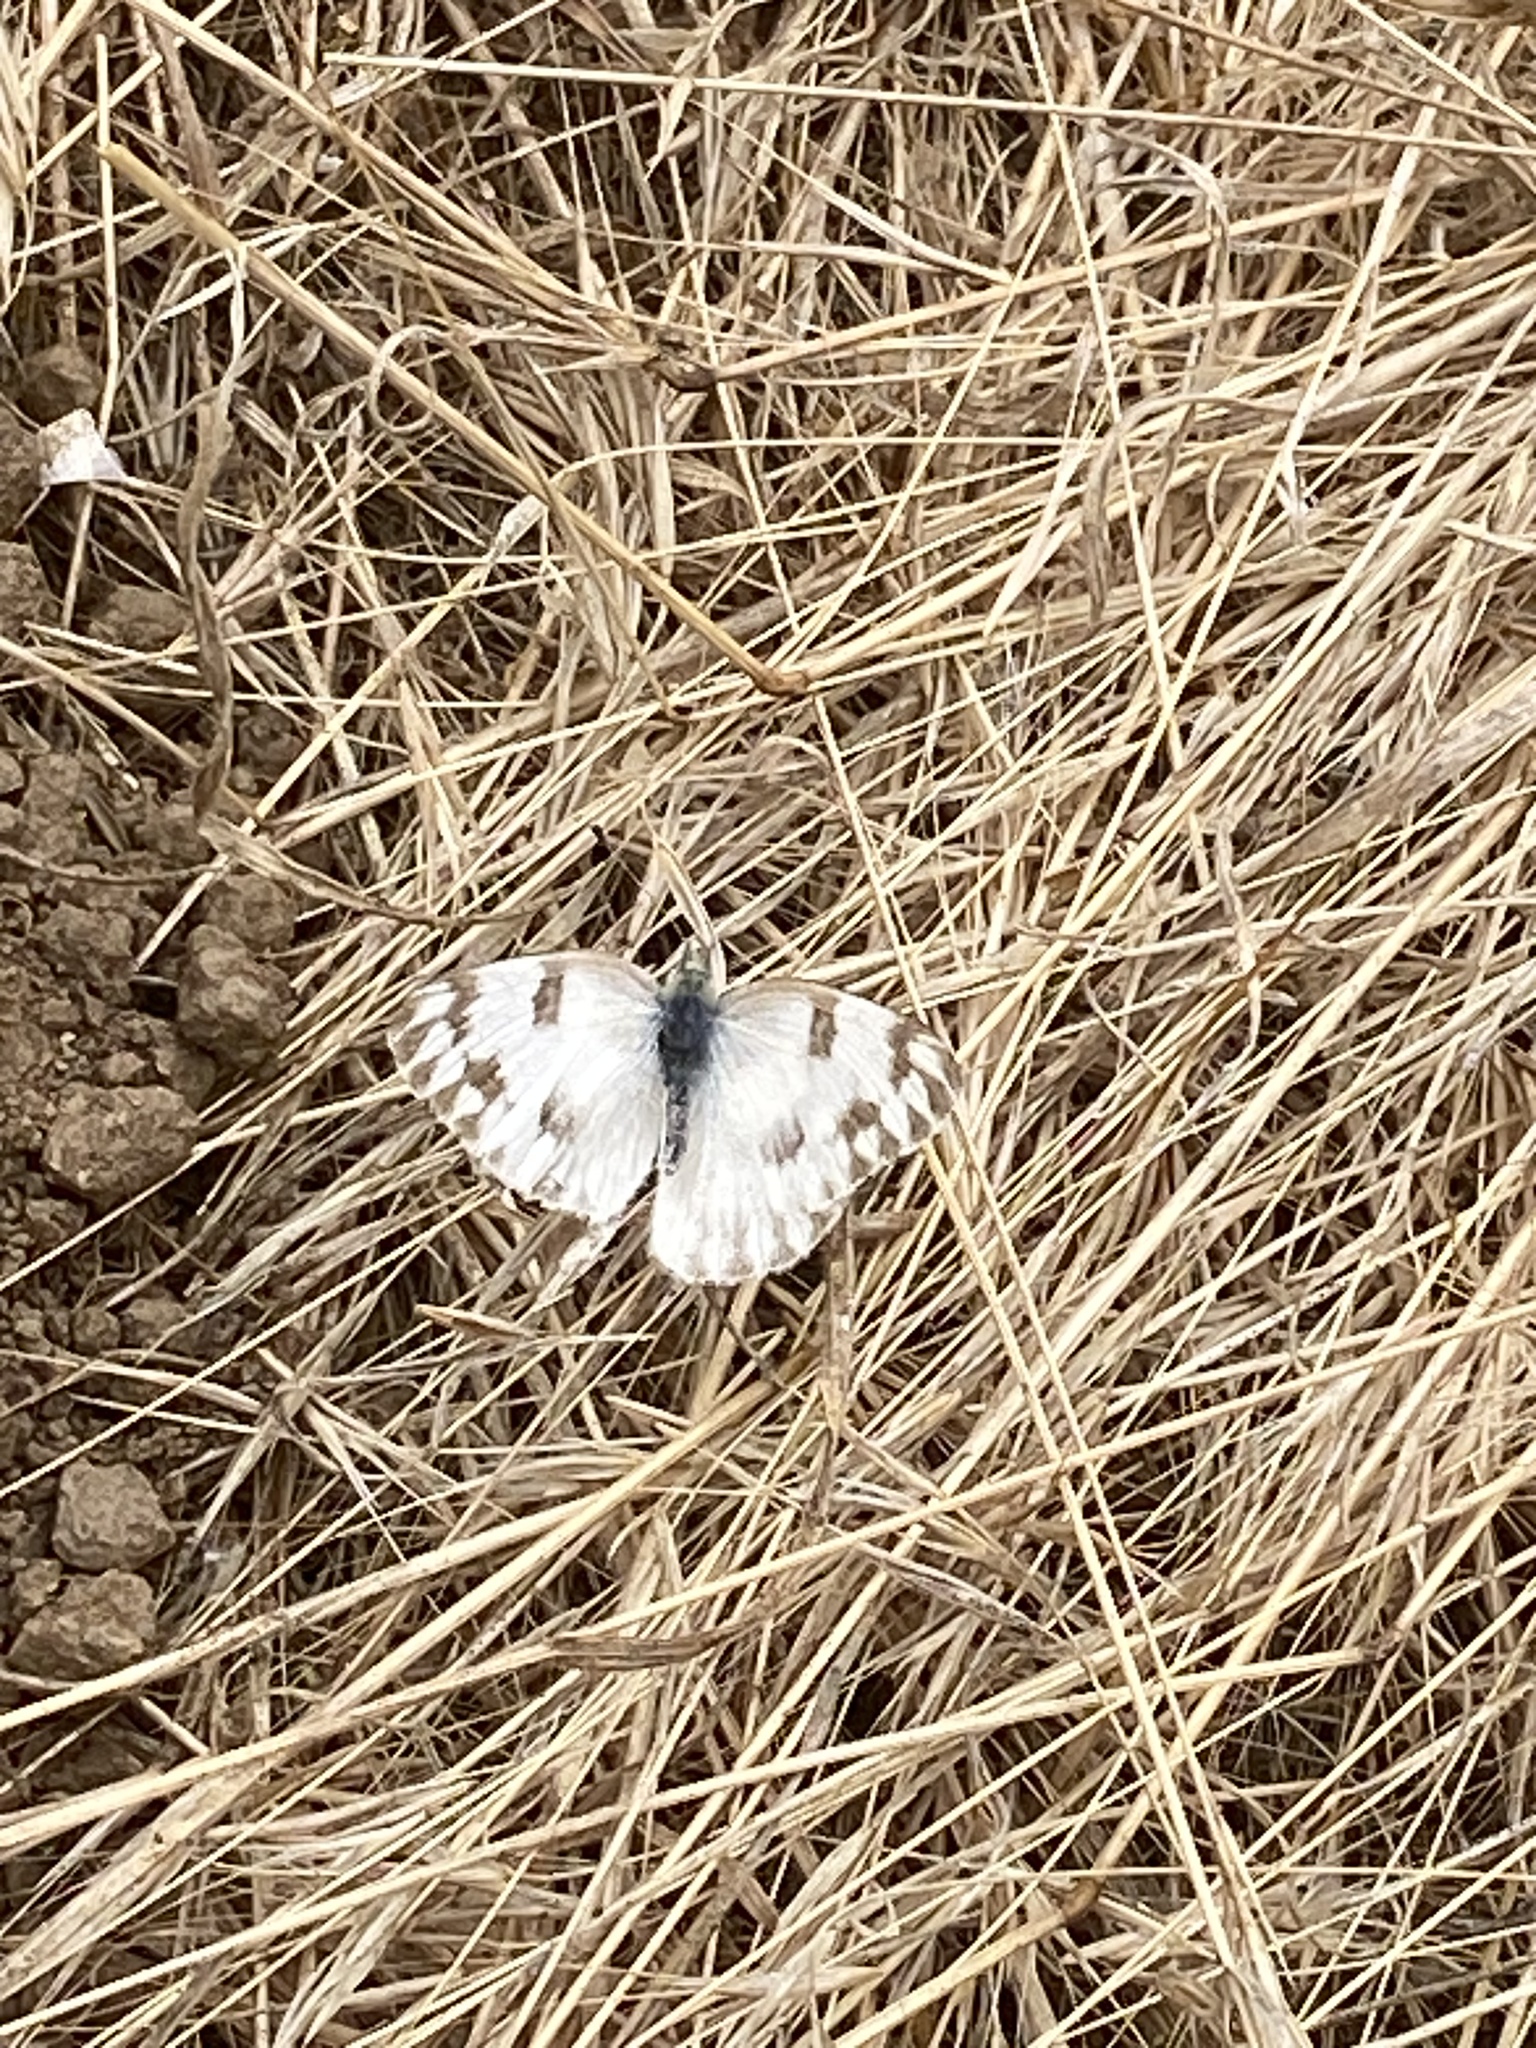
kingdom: Animalia
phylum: Arthropoda
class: Insecta
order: Lepidoptera
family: Pieridae
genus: Pontia
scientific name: Pontia protodice
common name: Checkered white
